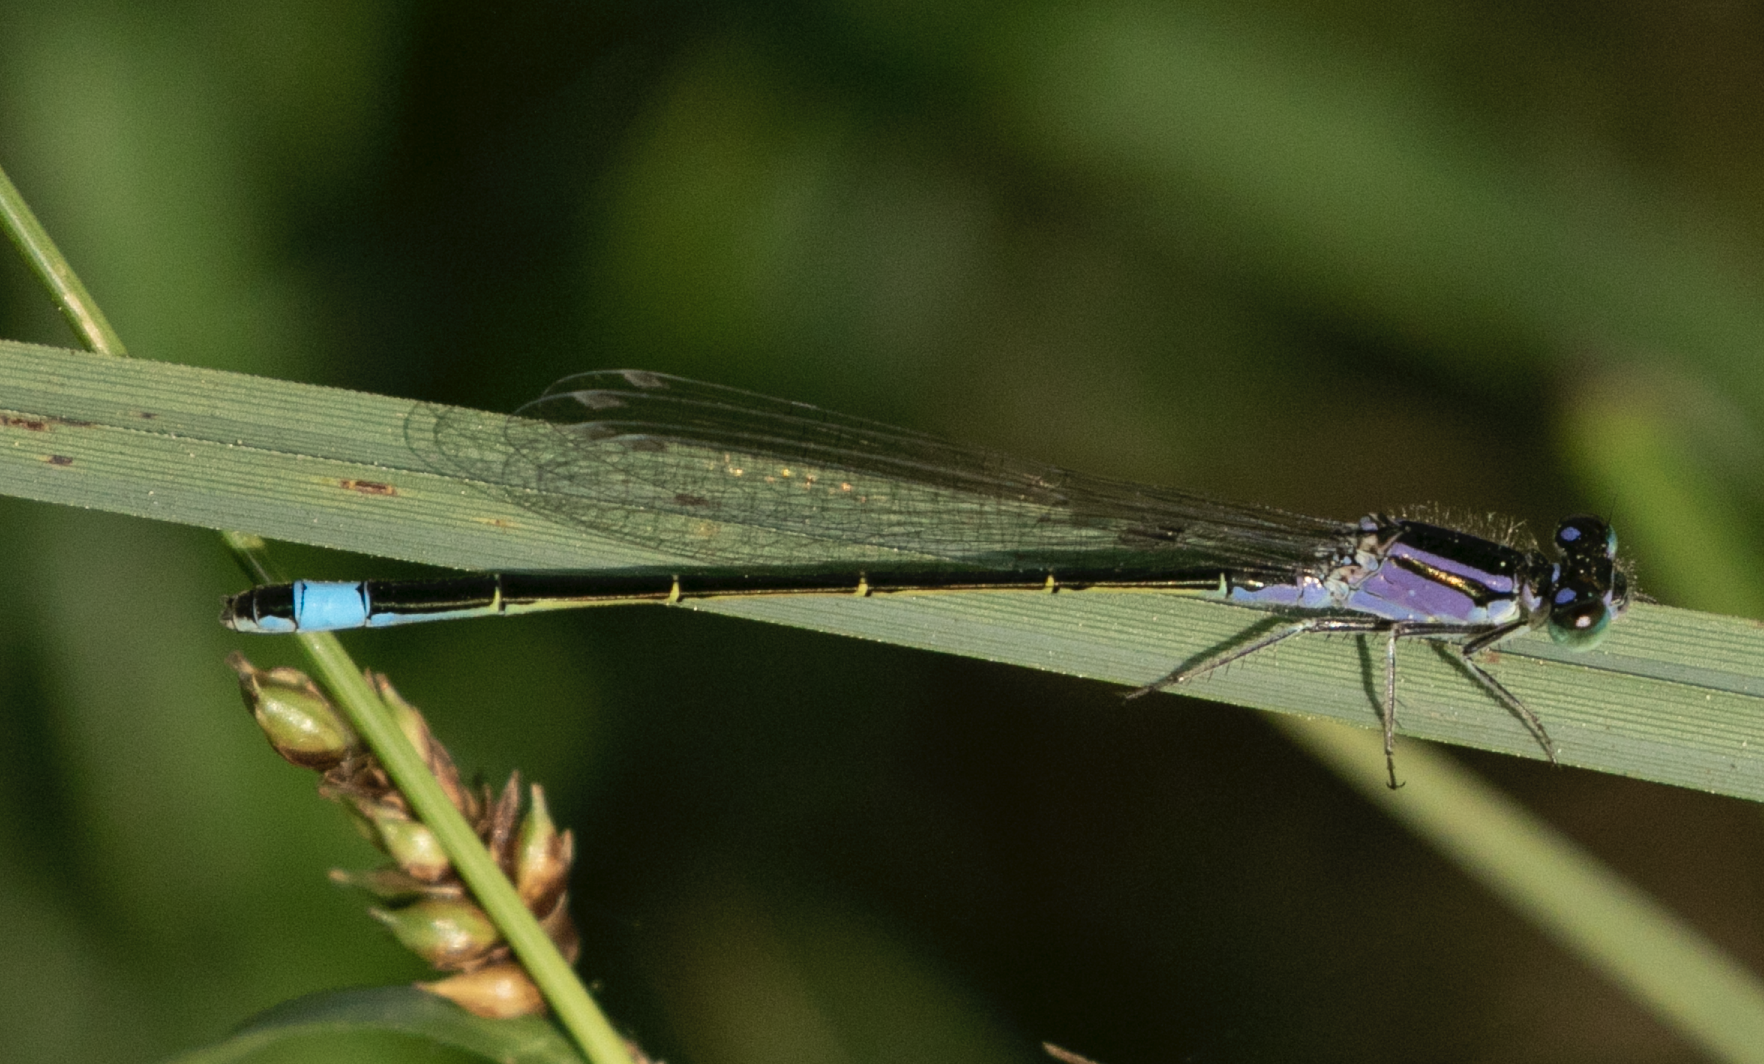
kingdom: Animalia
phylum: Arthropoda
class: Insecta
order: Odonata
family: Coenagrionidae
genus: Ischnura
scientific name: Ischnura elegans
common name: Blue-tailed damselfly
